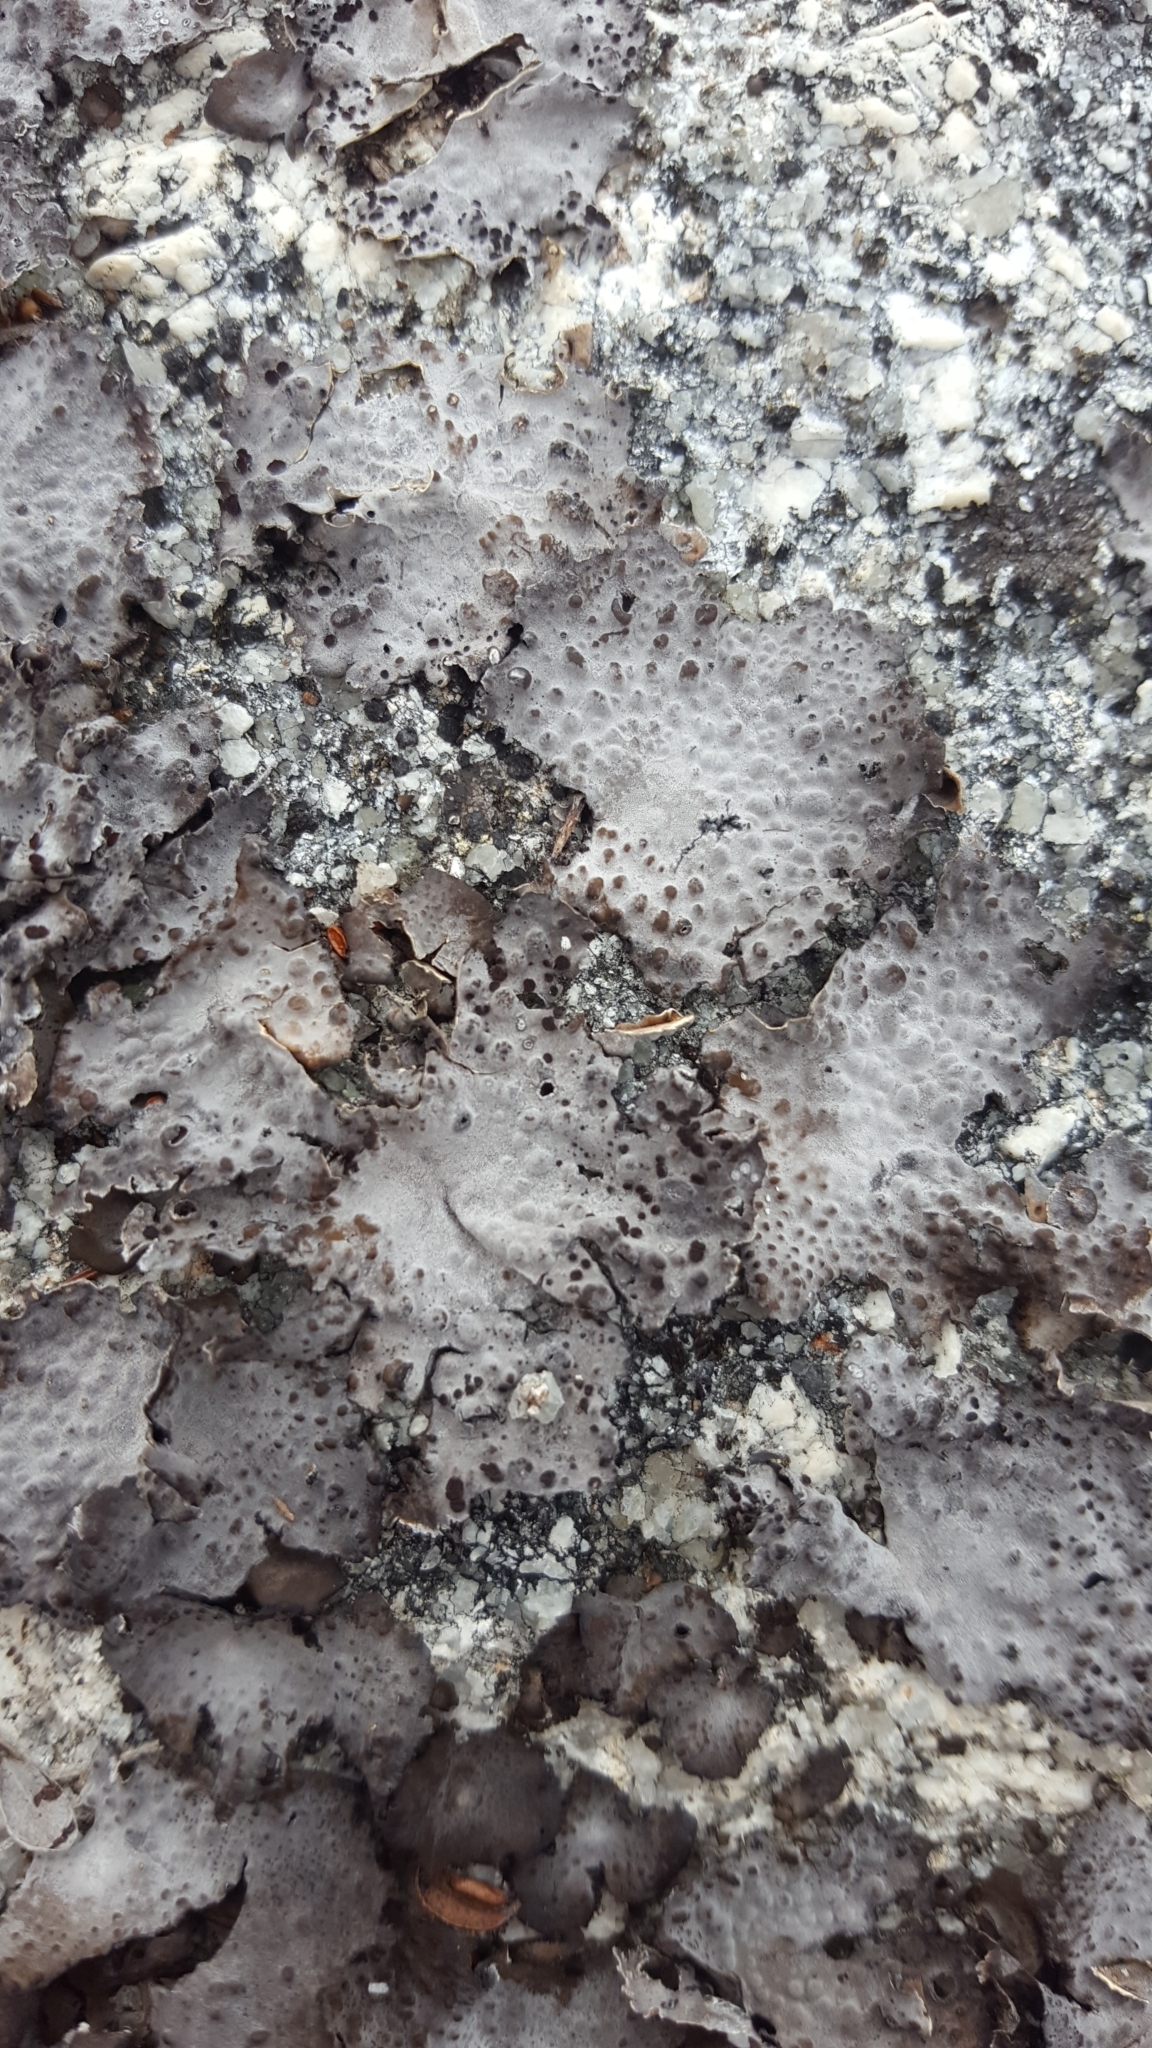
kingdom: Fungi
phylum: Ascomycota
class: Lecanoromycetes
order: Umbilicariales
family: Umbilicariaceae
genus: Lasallia
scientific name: Lasallia papulosa
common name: Common toadskin lichen
